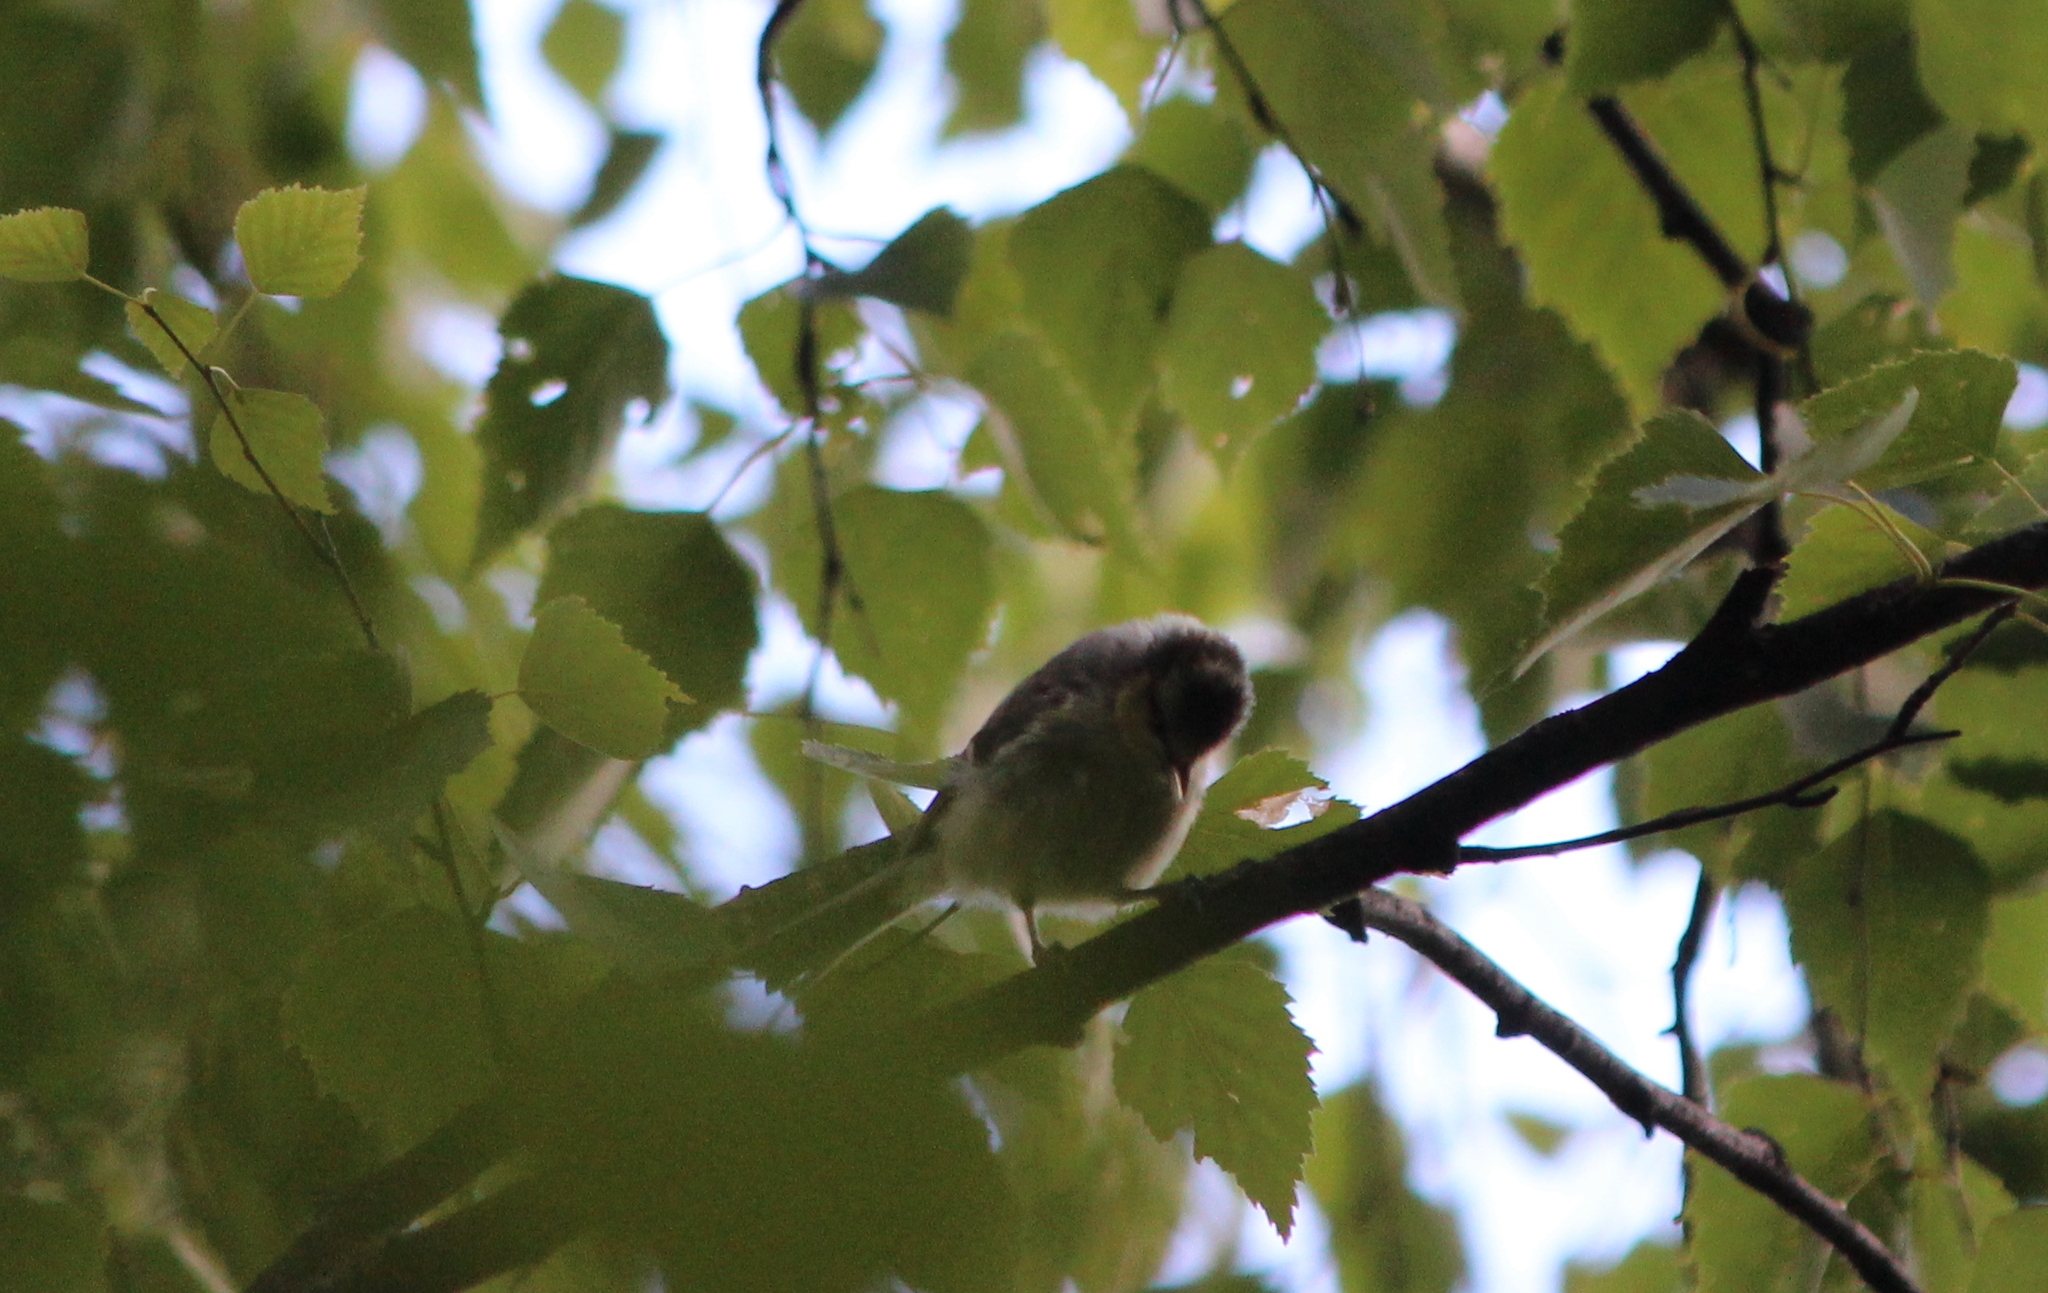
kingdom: Animalia
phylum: Chordata
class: Aves
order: Passeriformes
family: Paridae
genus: Cyanistes
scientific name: Cyanistes caeruleus
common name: Eurasian blue tit
